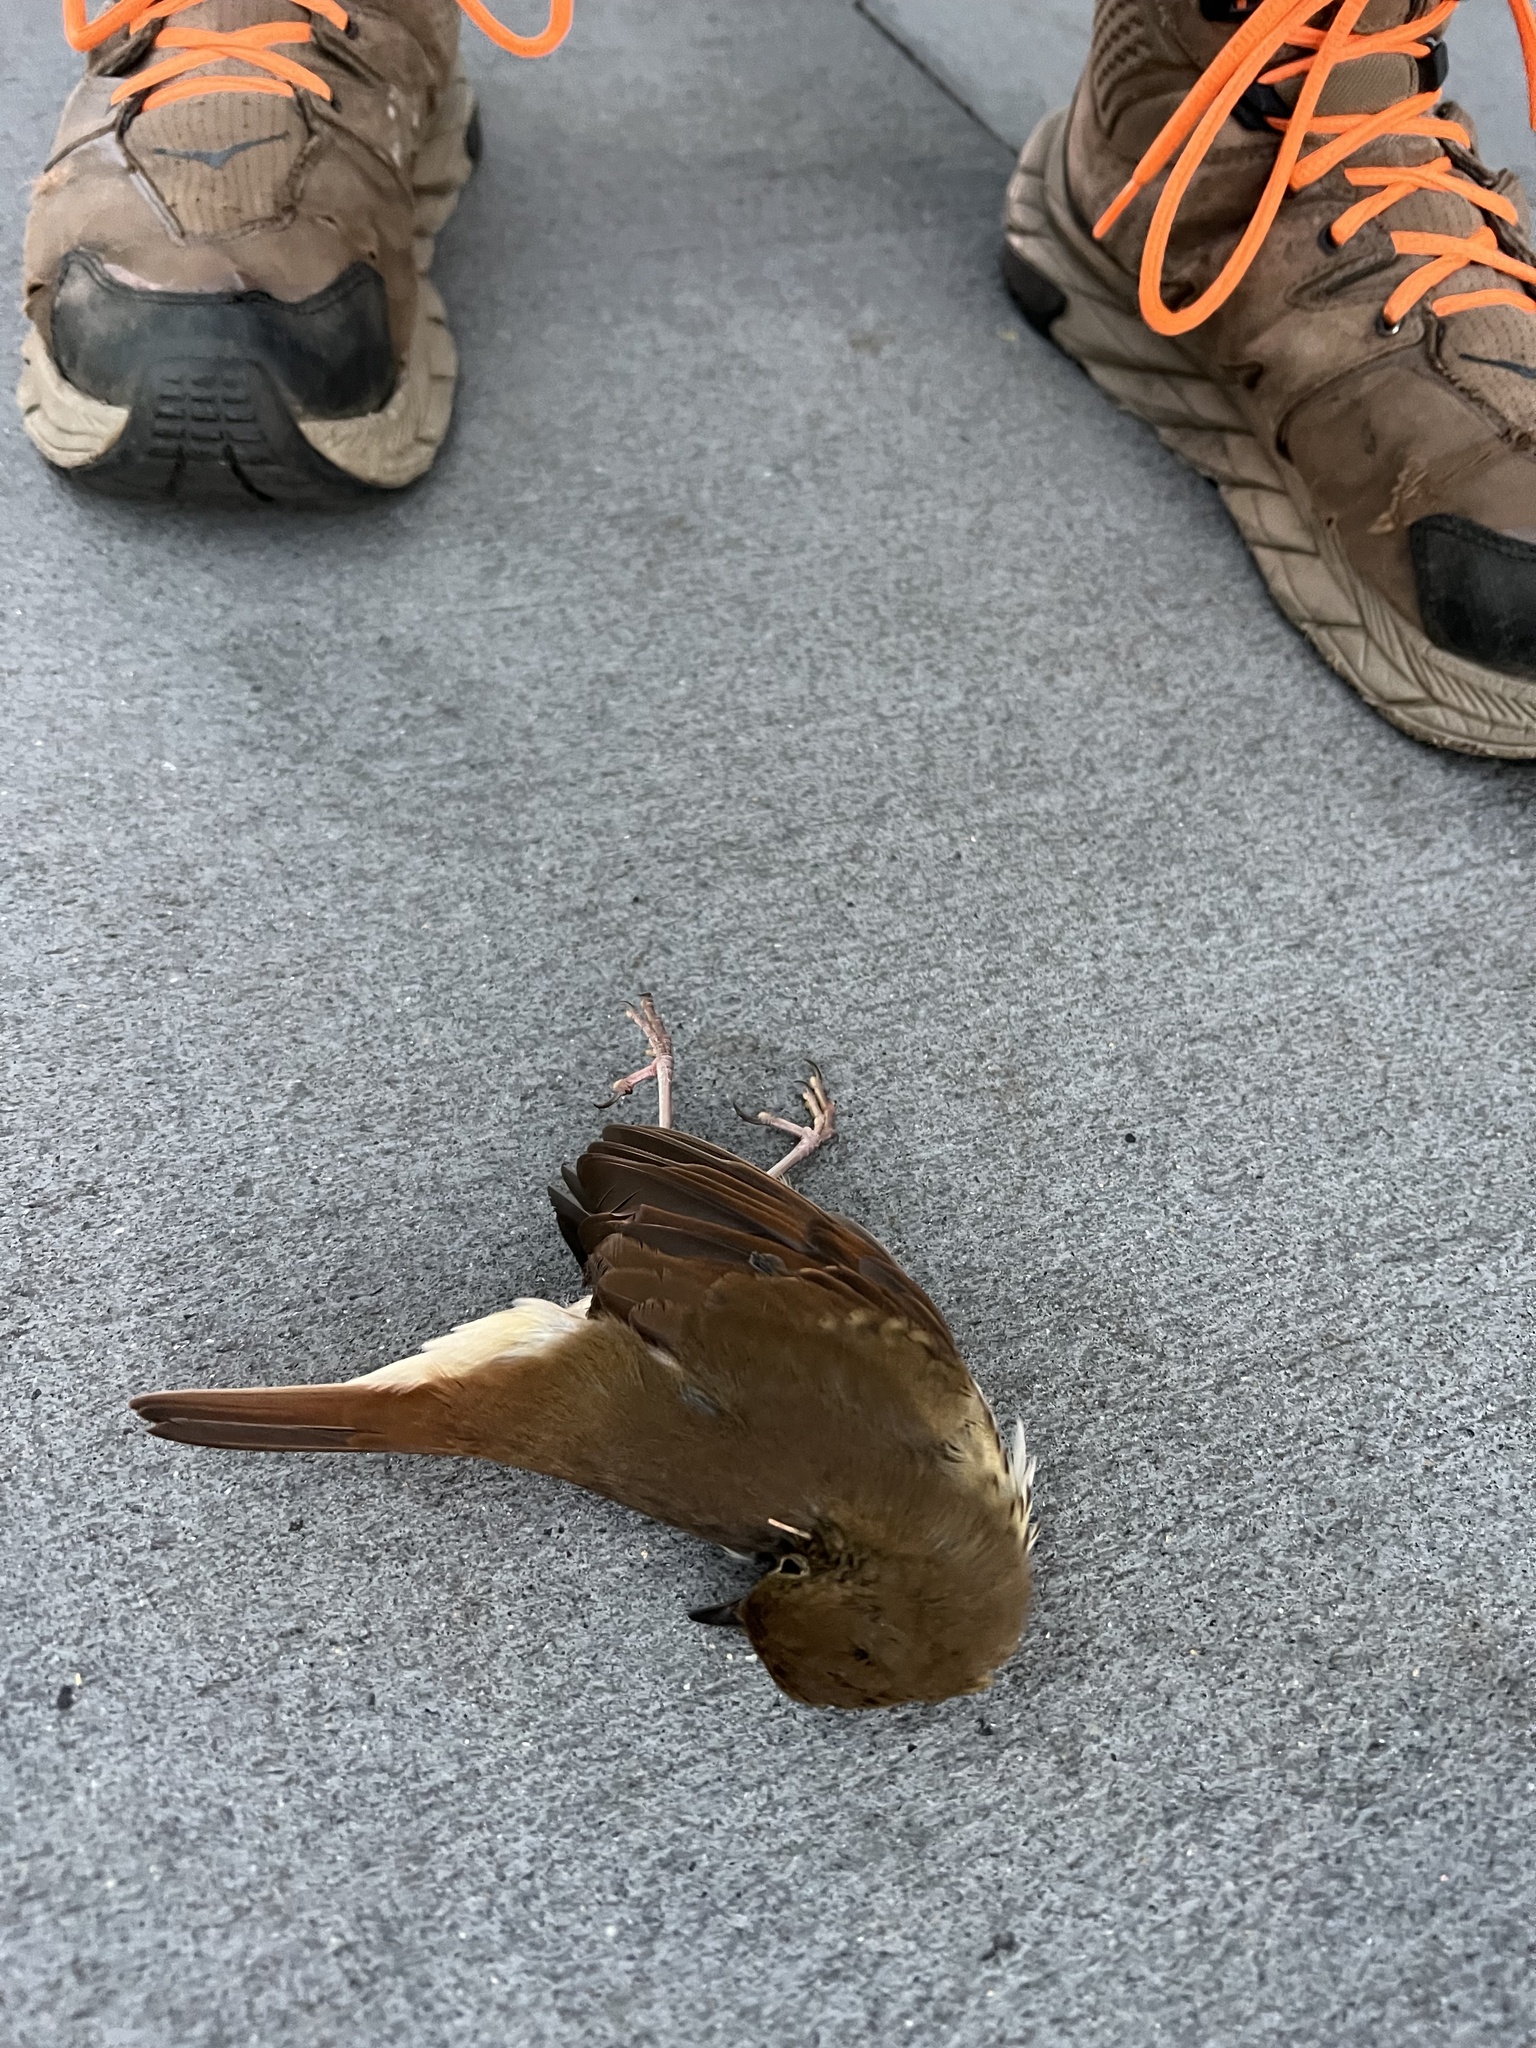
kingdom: Animalia
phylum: Chordata
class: Aves
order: Passeriformes
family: Turdidae
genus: Catharus
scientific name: Catharus guttatus
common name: Hermit thrush
